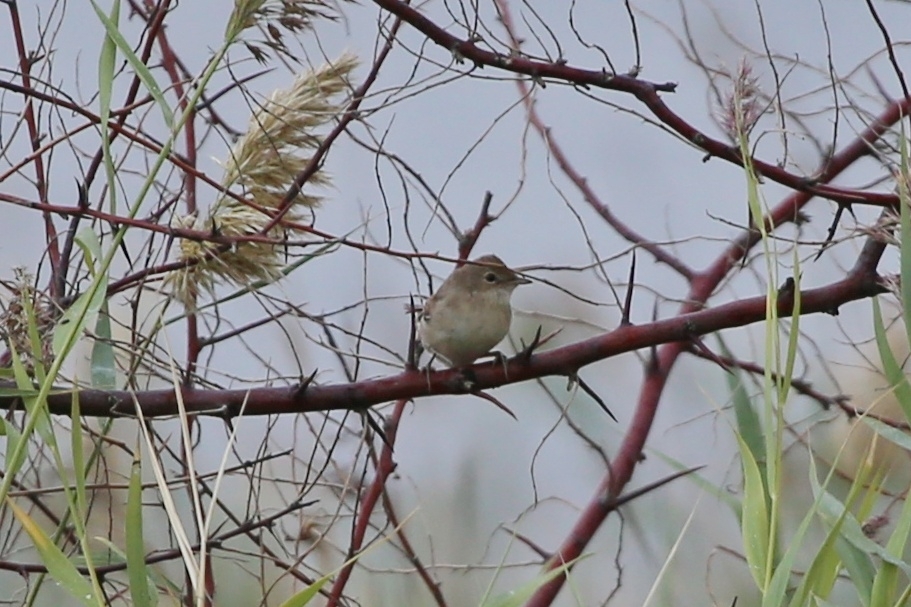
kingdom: Animalia
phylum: Chordata
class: Aves
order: Passeriformes
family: Sylviidae
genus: Sylvia
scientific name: Sylvia communis
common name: Common whitethroat
